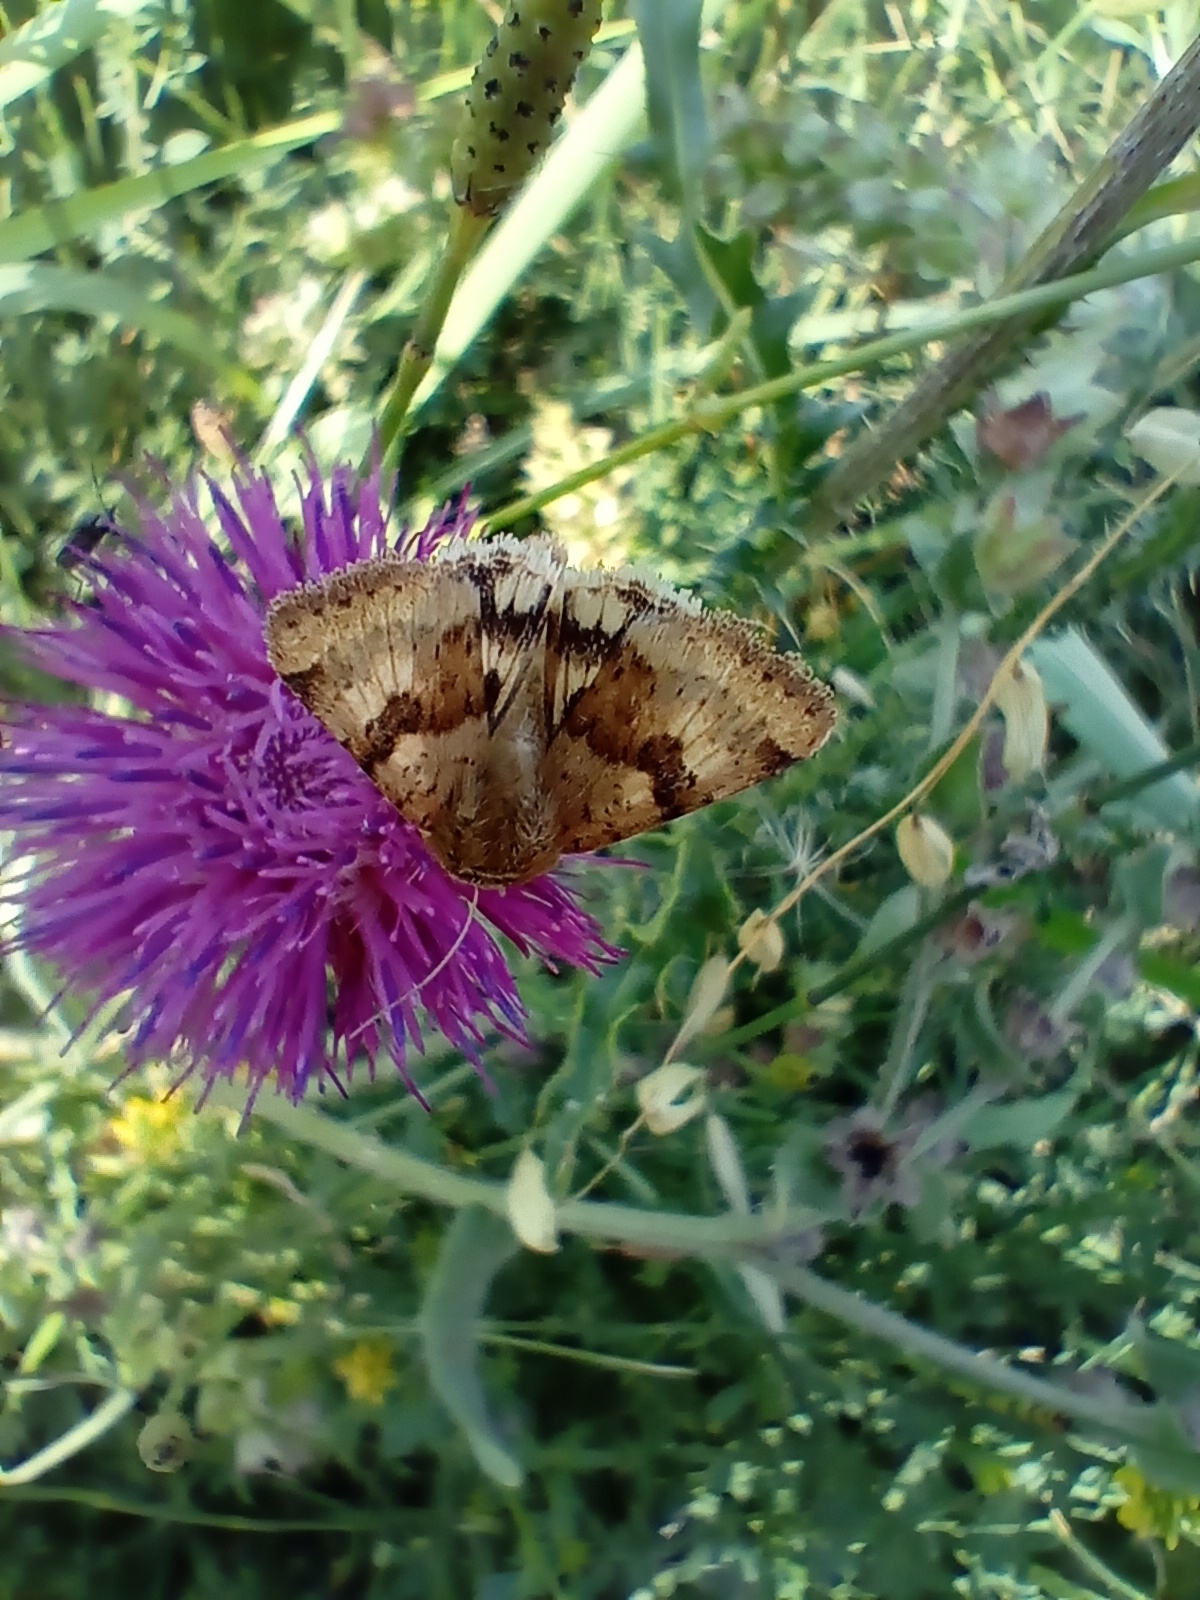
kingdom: Animalia
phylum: Arthropoda
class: Insecta
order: Lepidoptera
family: Noctuidae
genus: Heliothis
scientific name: Heliothis viriplaca
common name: Marbled clover
